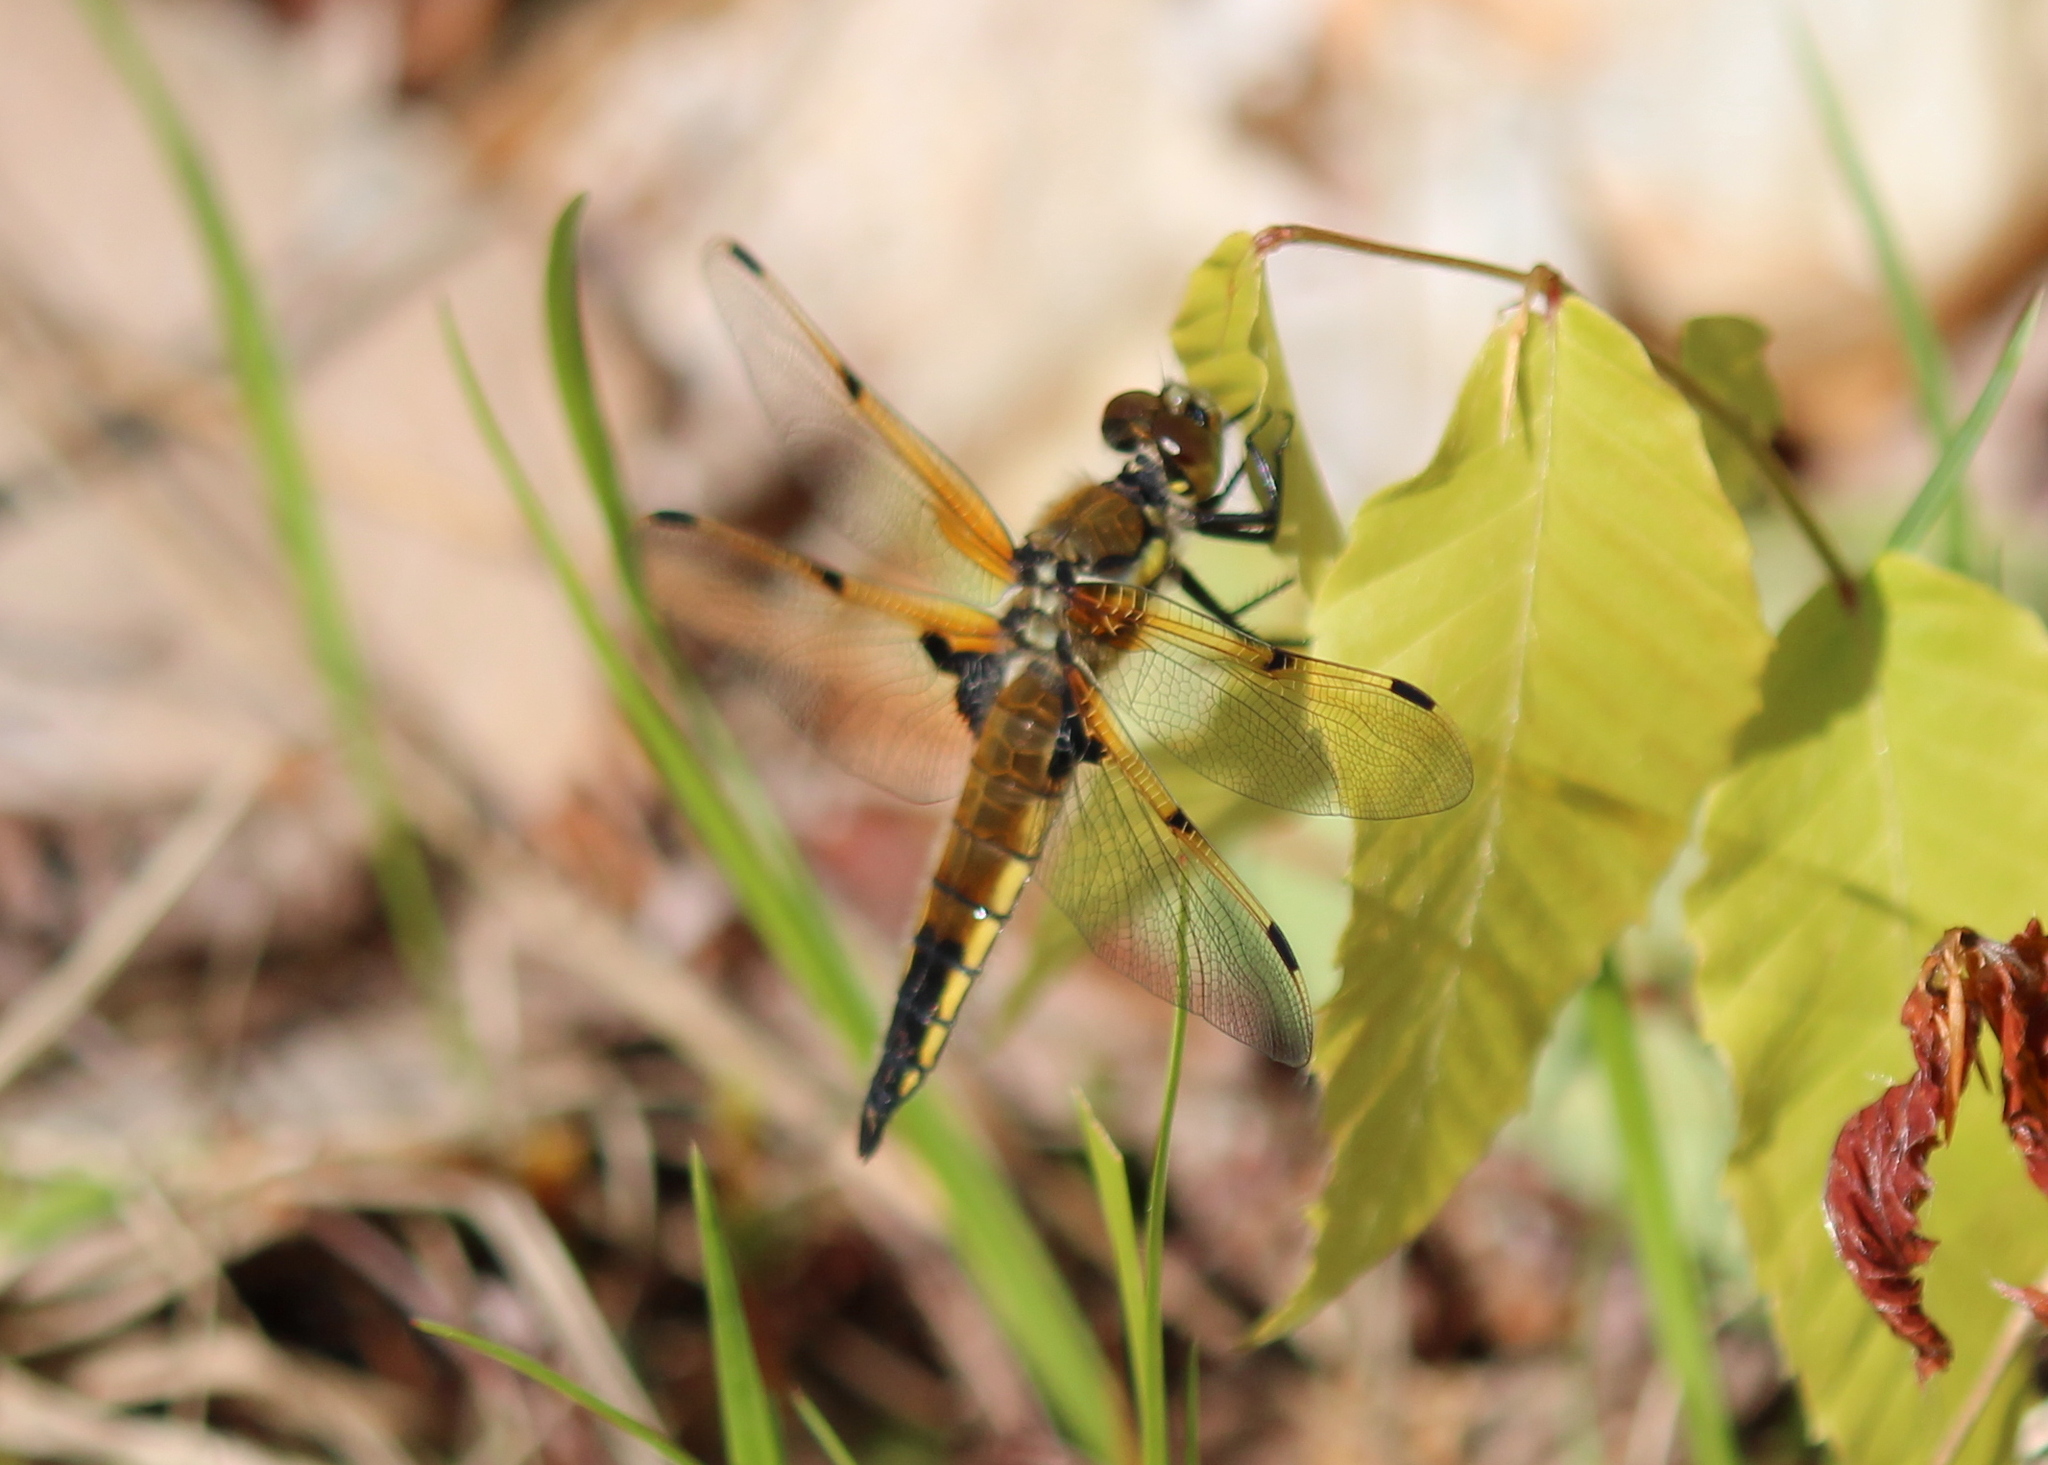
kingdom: Animalia
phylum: Arthropoda
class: Insecta
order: Odonata
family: Libellulidae
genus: Libellula
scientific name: Libellula quadrimaculata
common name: Four-spotted chaser
